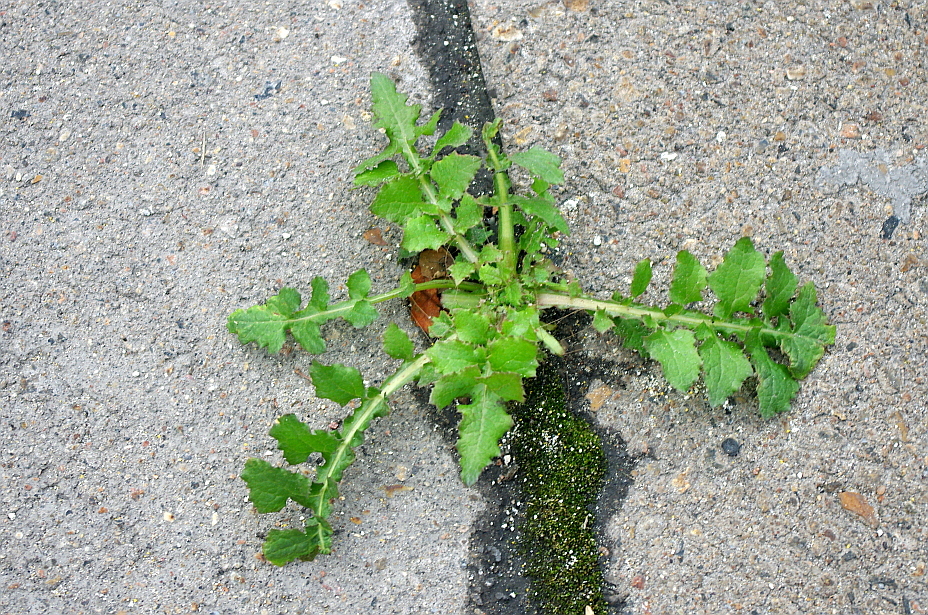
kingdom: Plantae
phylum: Tracheophyta
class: Magnoliopsida
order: Brassicales
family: Brassicaceae
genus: Rorippa
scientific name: Rorippa palustris
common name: Marsh yellow-cress
